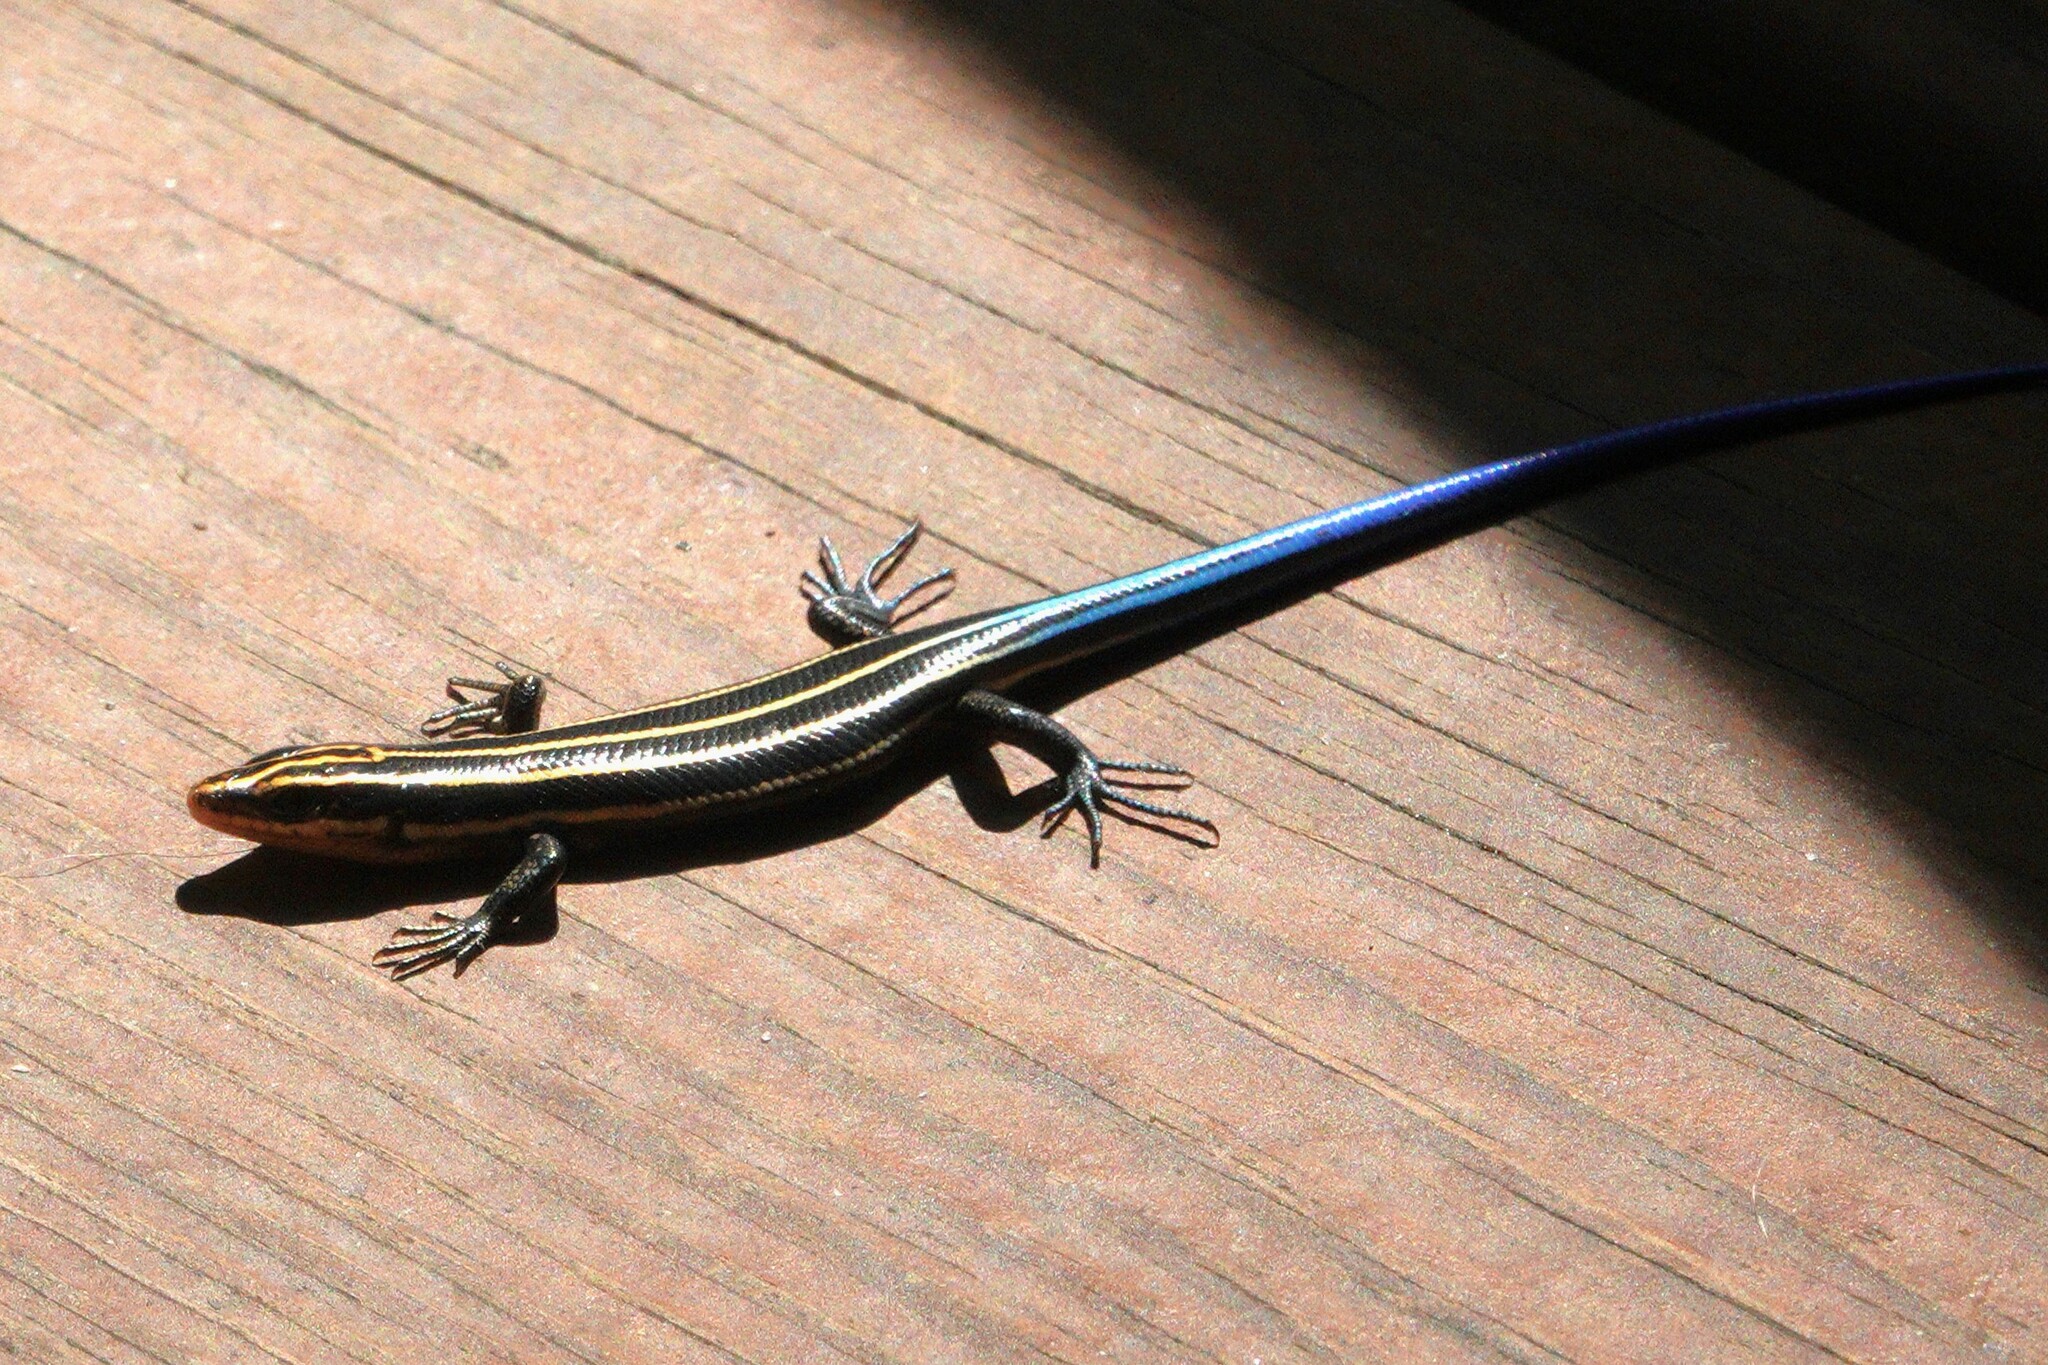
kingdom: Animalia
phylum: Chordata
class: Squamata
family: Scincidae
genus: Plestiodon
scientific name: Plestiodon fasciatus
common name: Five-lined skink
